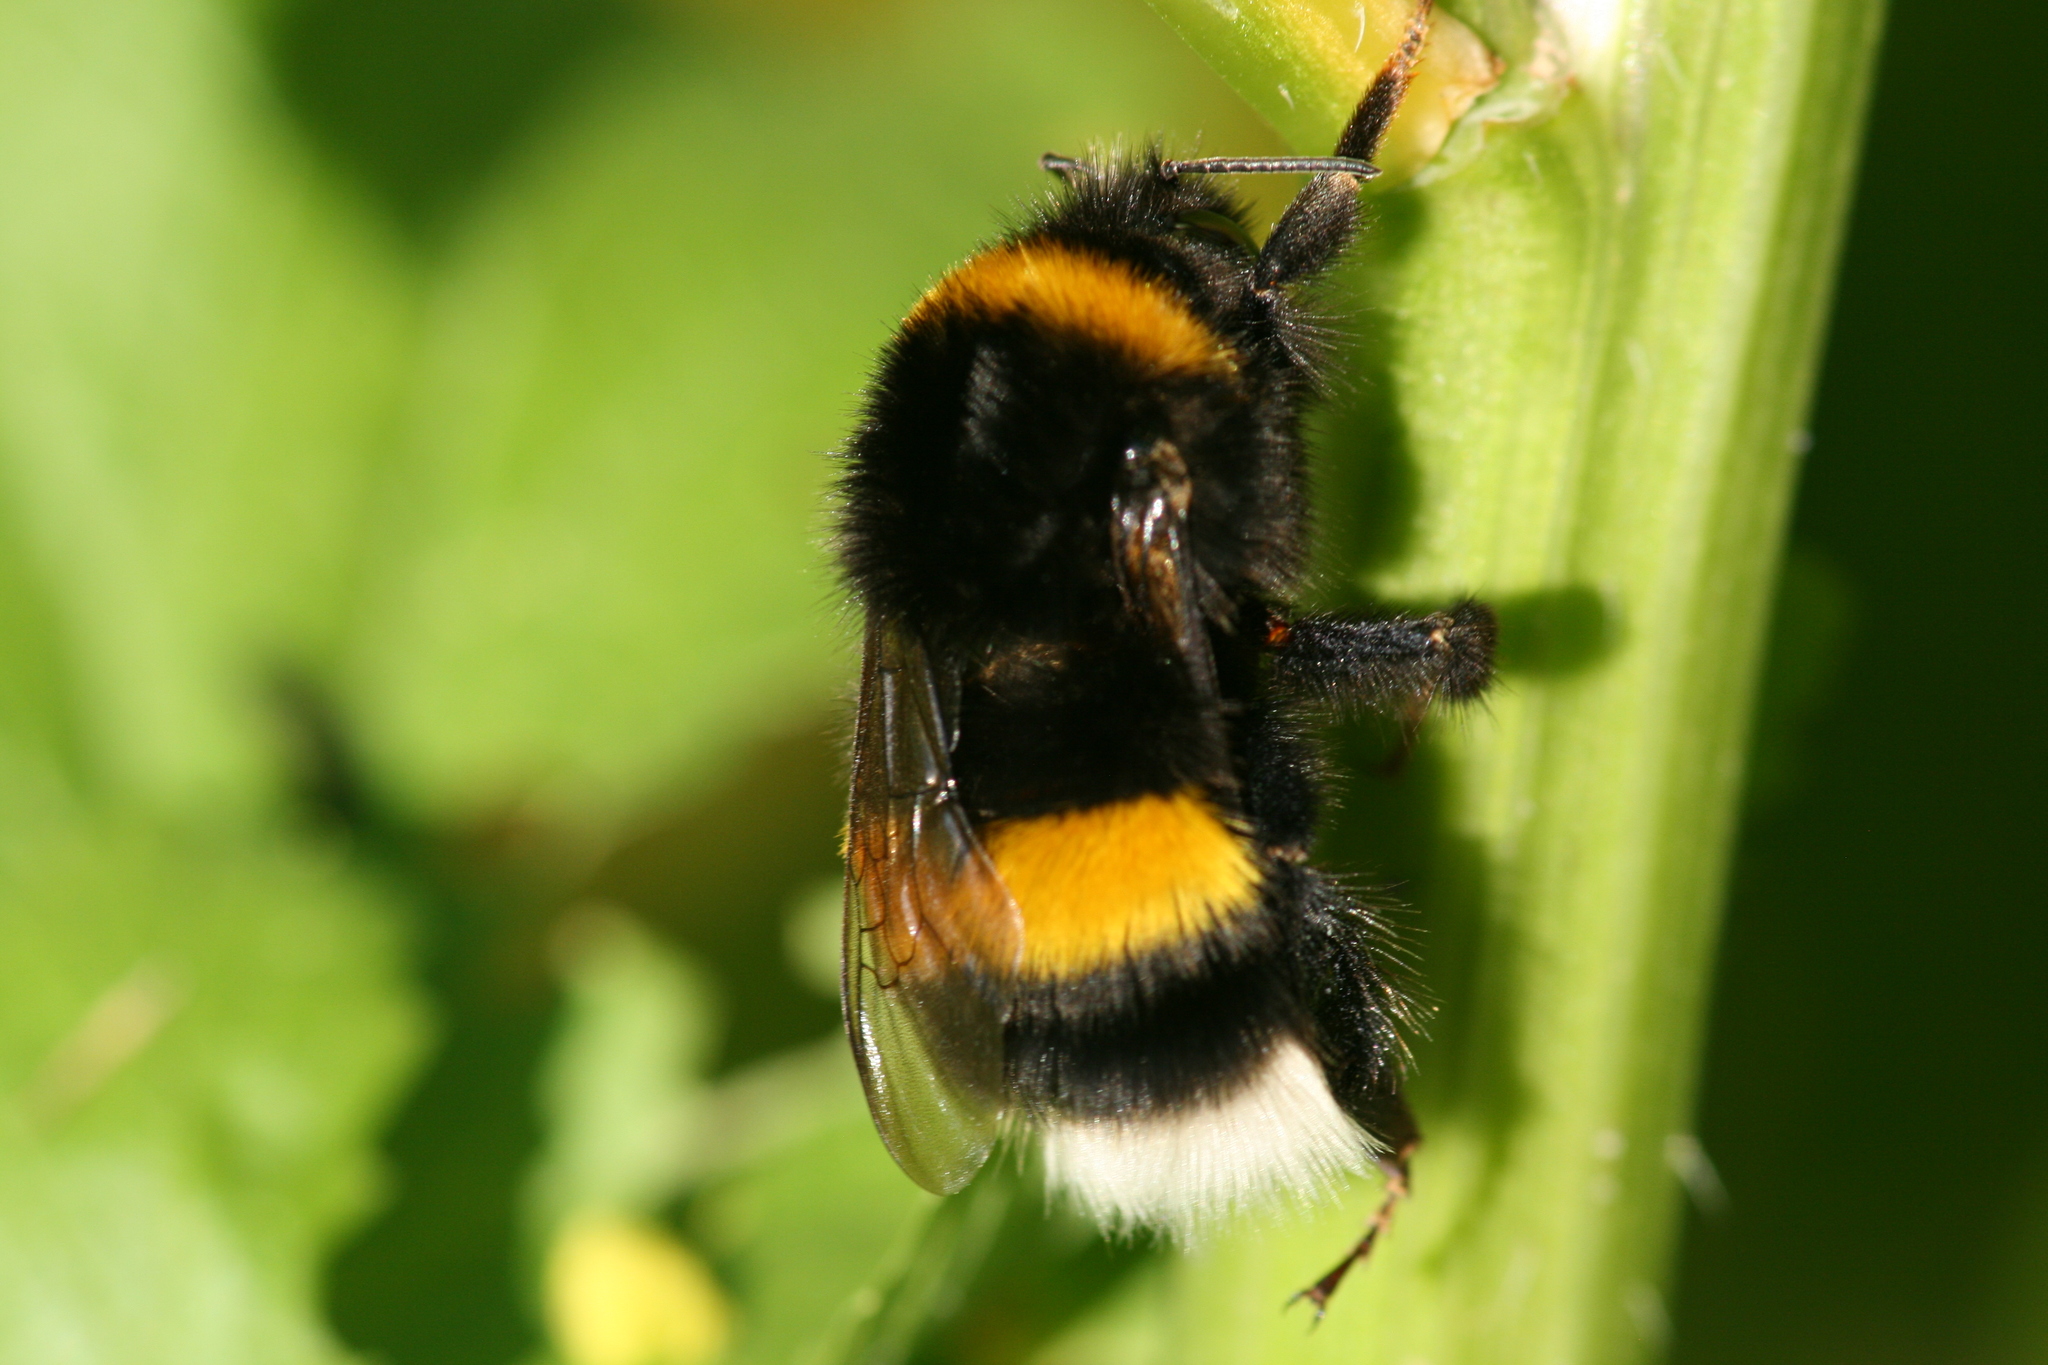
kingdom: Animalia
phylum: Arthropoda
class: Insecta
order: Hymenoptera
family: Apidae
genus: Bombus
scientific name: Bombus terrestris
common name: Buff-tailed bumblebee
